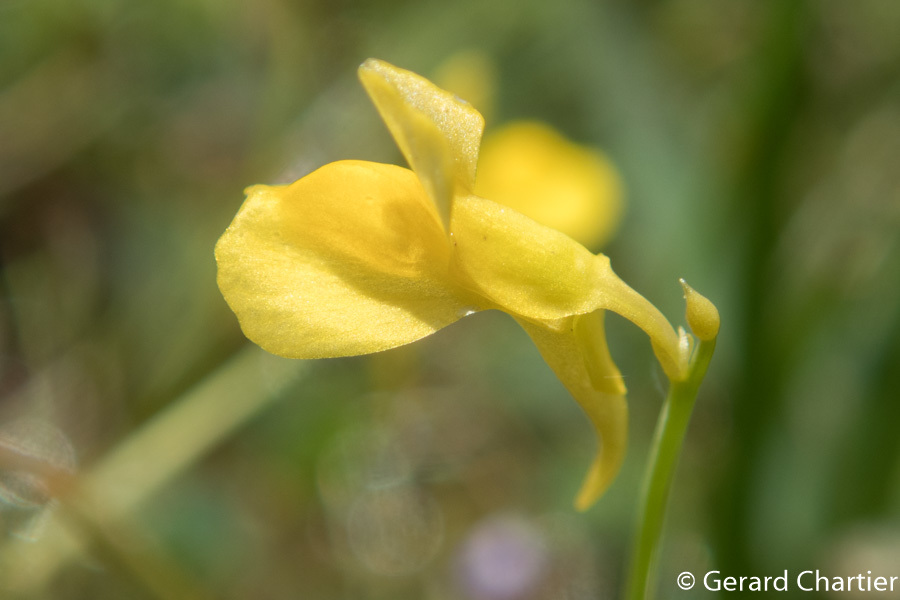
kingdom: Plantae
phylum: Tracheophyta
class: Magnoliopsida
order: Lamiales
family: Lentibulariaceae
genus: Utricularia
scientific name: Utricularia odorata
